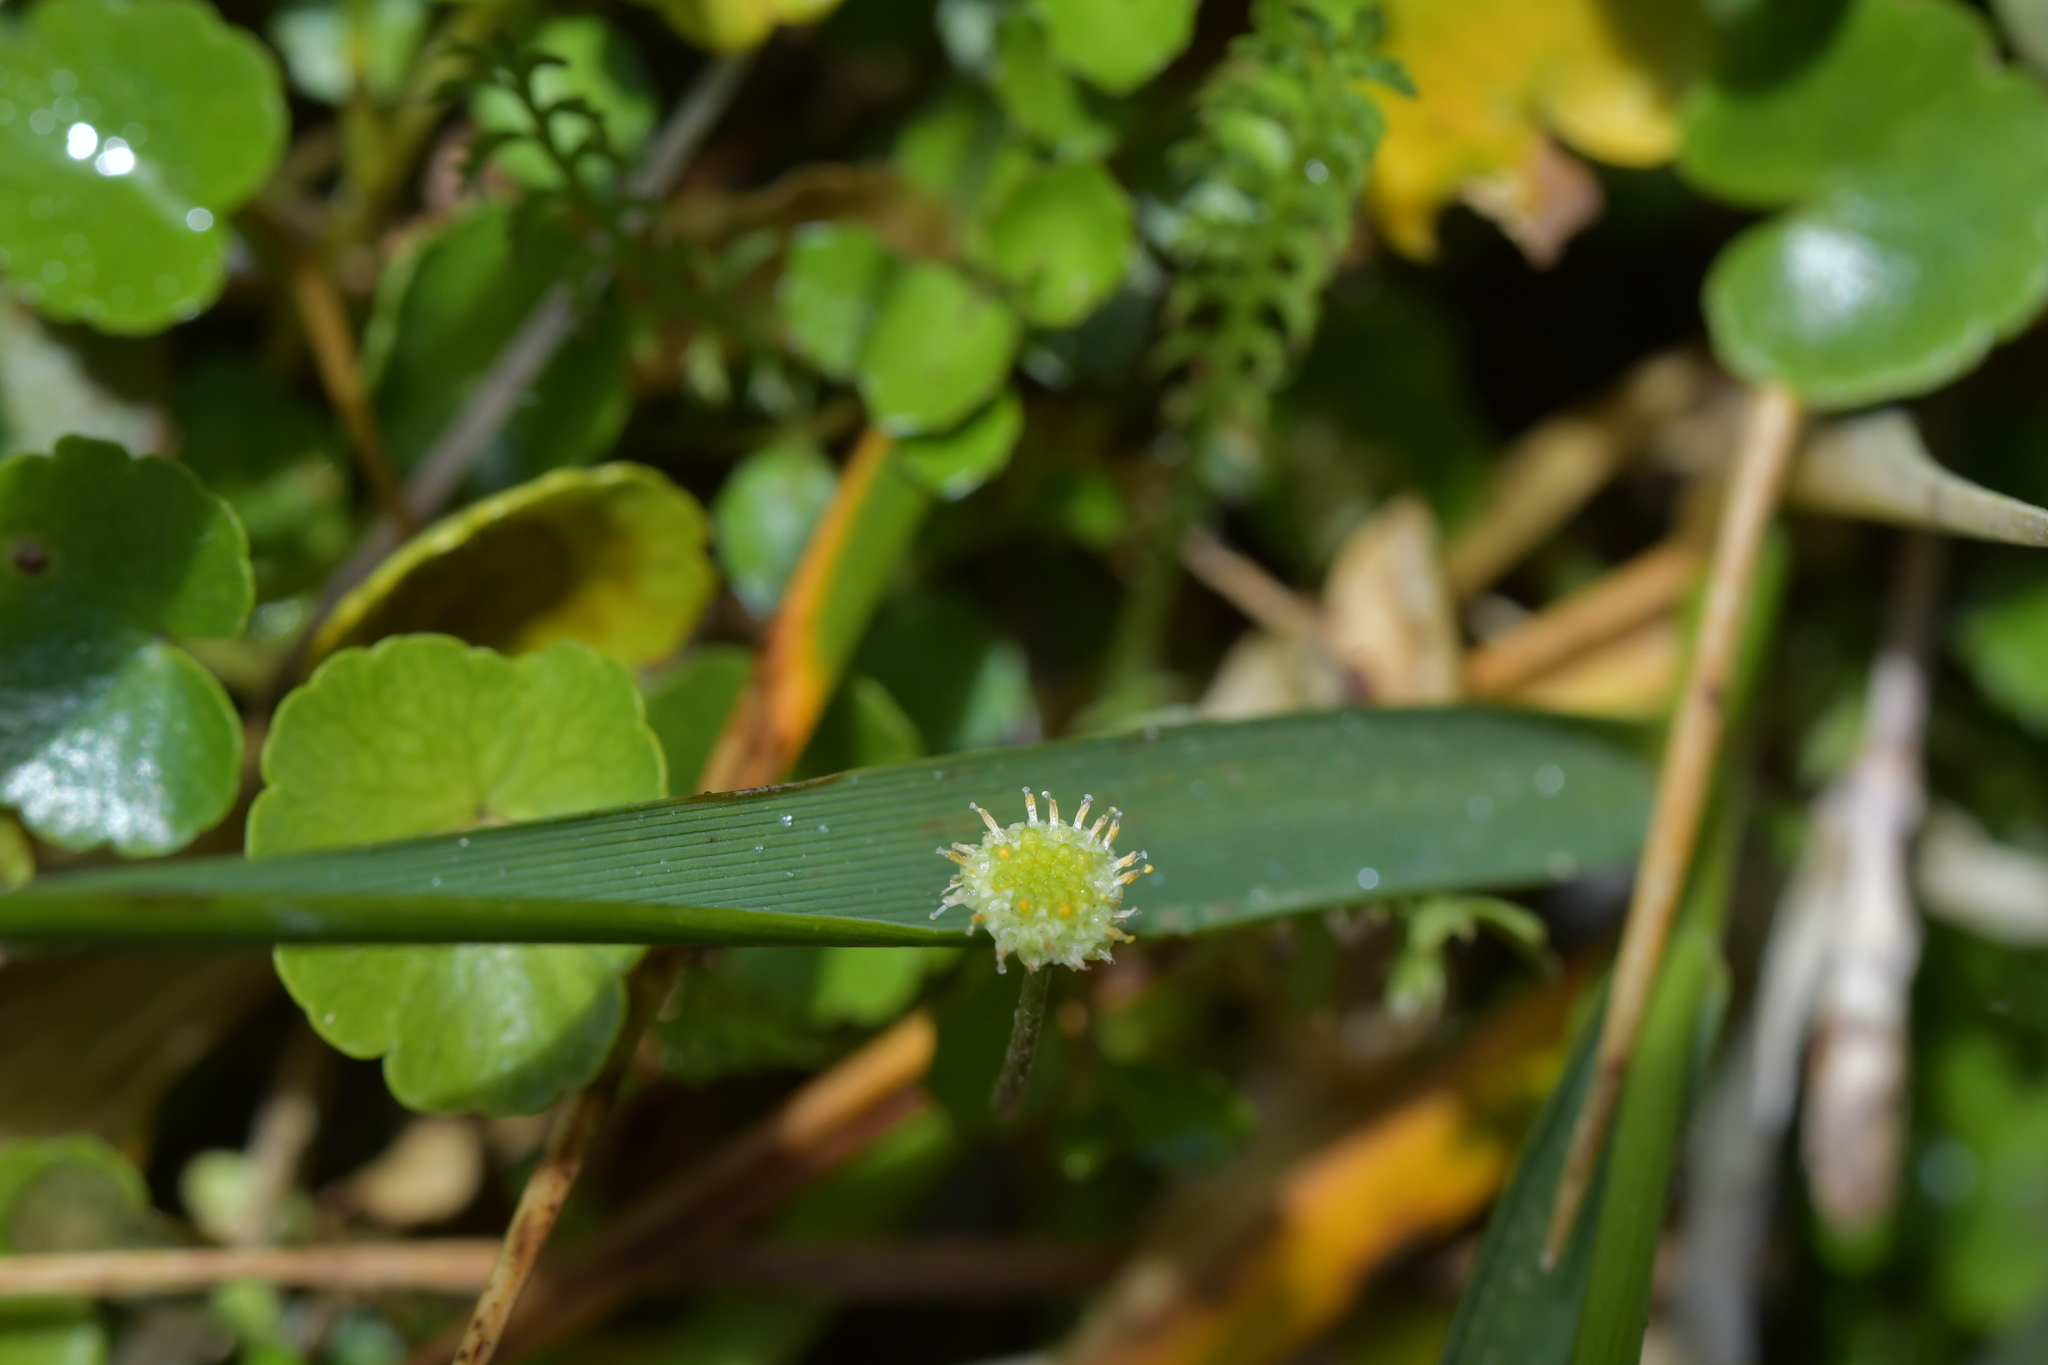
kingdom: Plantae
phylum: Tracheophyta
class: Magnoliopsida
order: Asterales
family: Asteraceae
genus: Leptinella
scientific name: Leptinella squalida
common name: New zealand brass-buttons
